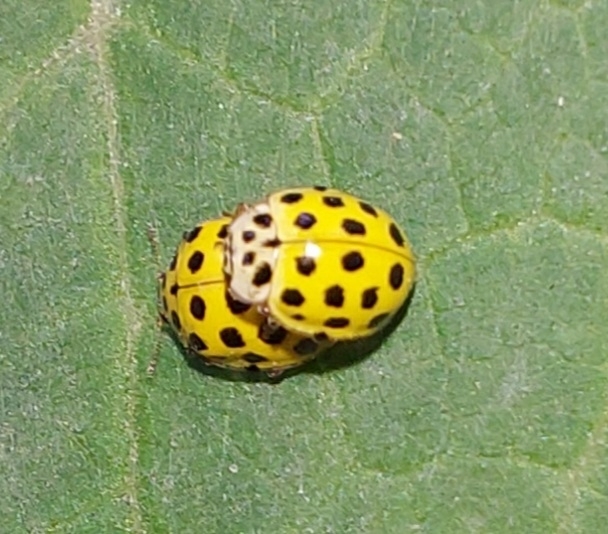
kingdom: Animalia
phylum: Arthropoda
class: Insecta
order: Coleoptera
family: Coccinellidae
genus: Psyllobora
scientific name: Psyllobora vigintiduopunctata
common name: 22-spot ladybird
